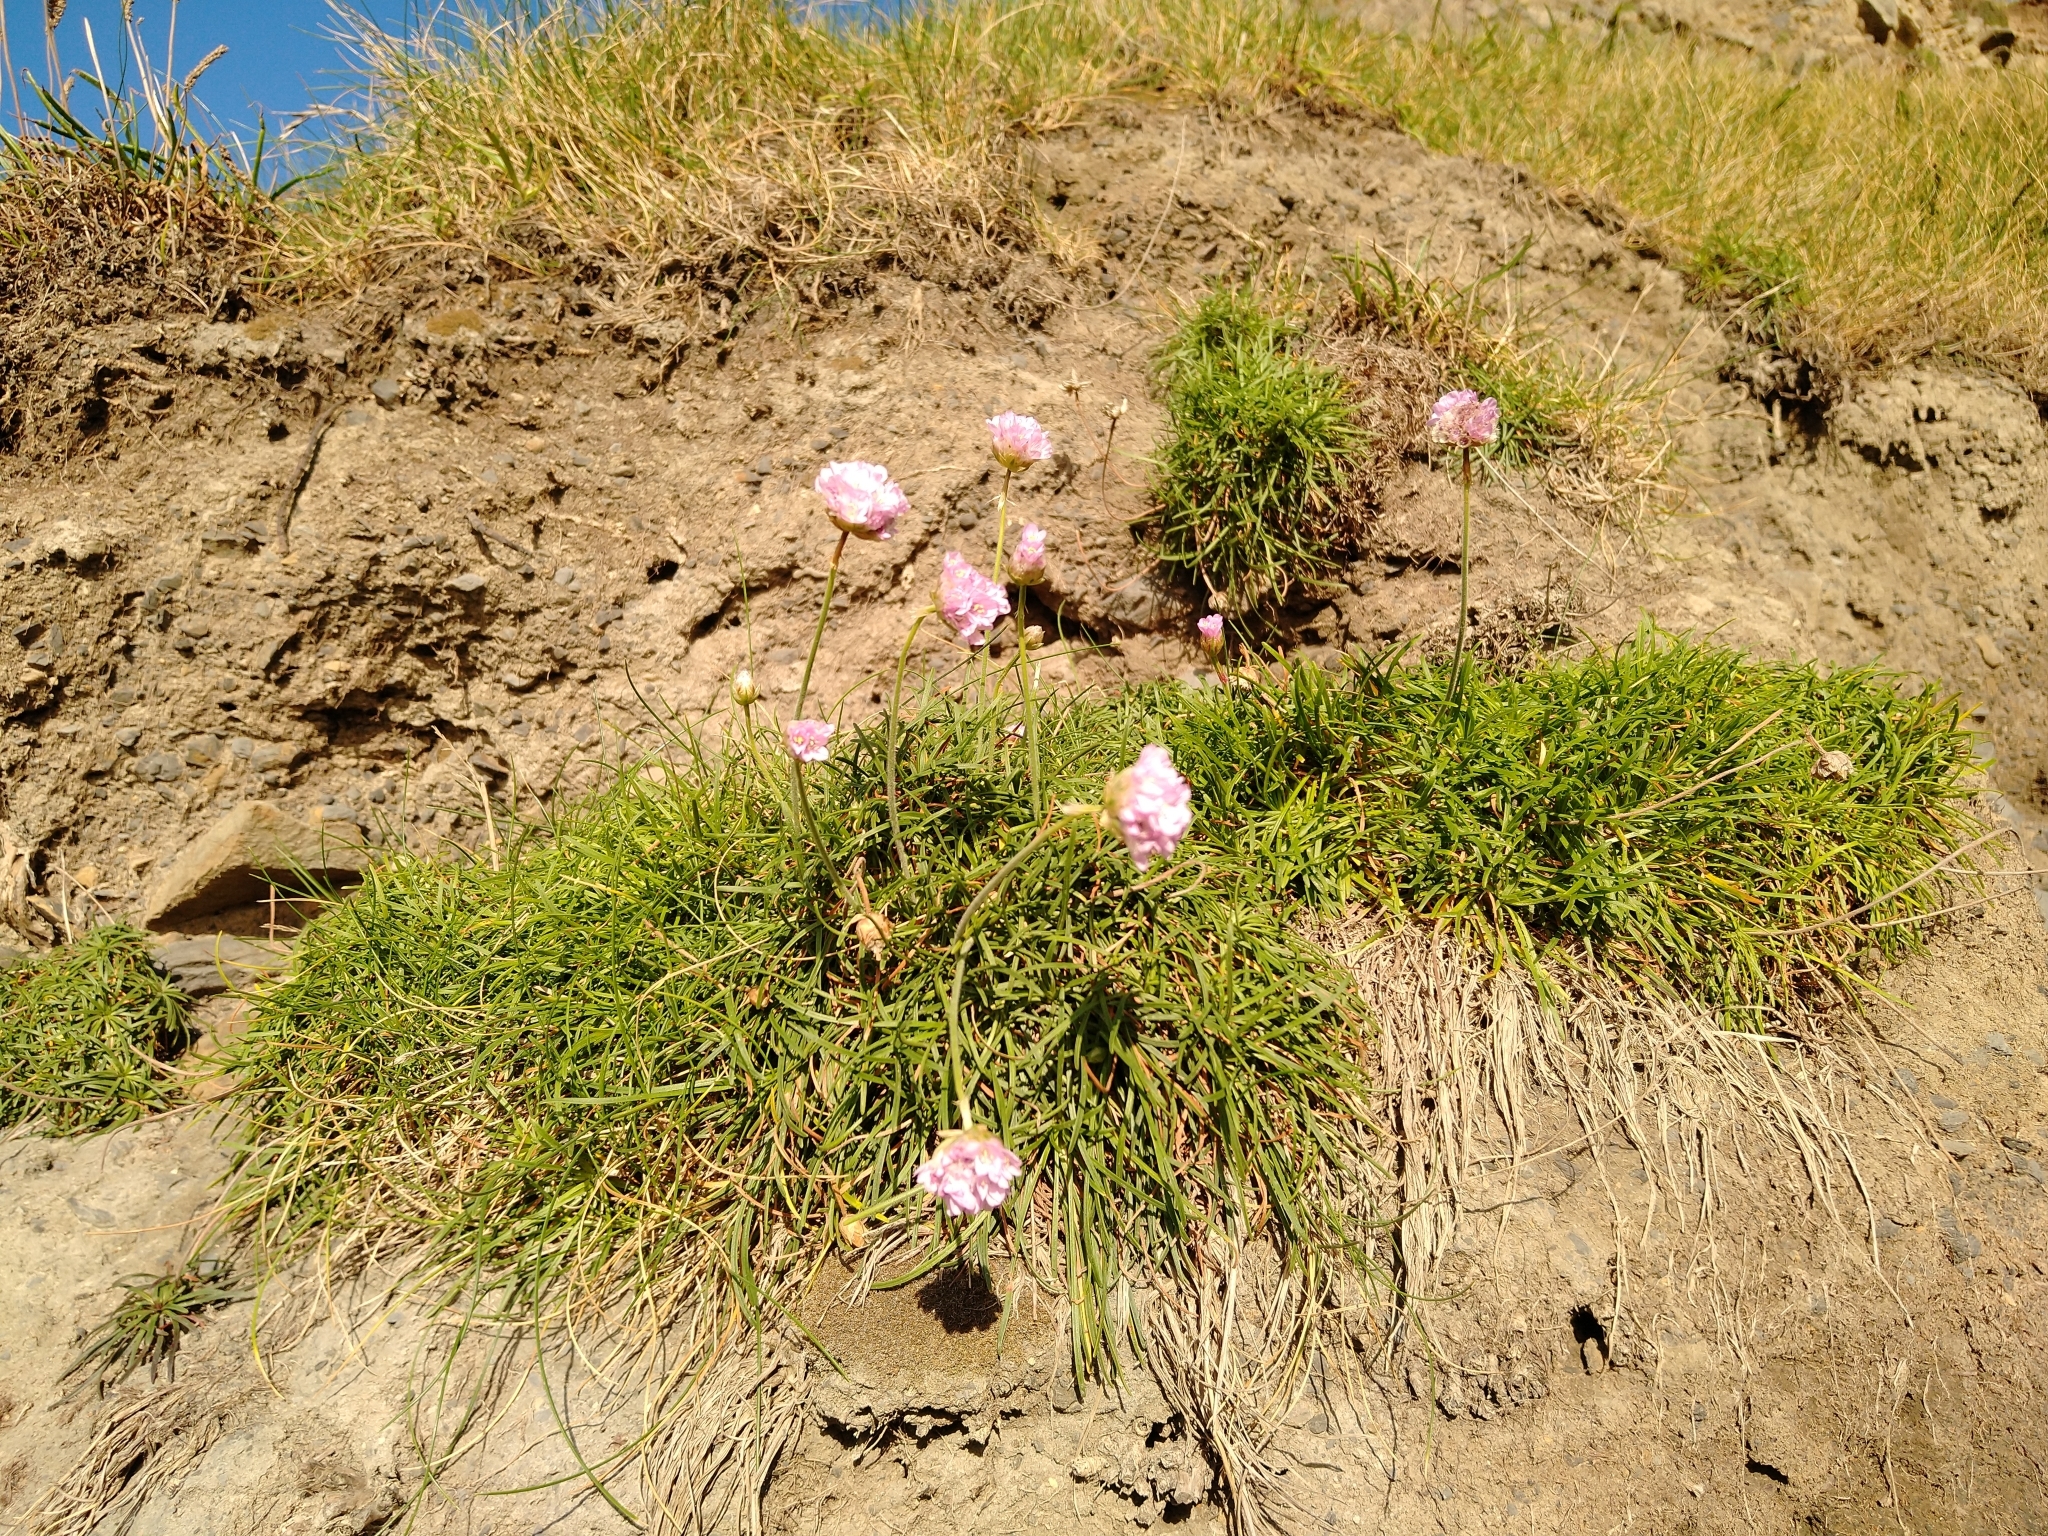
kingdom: Plantae
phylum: Tracheophyta
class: Magnoliopsida
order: Caryophyllales
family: Plumbaginaceae
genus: Armeria
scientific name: Armeria maritima
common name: Thrift
